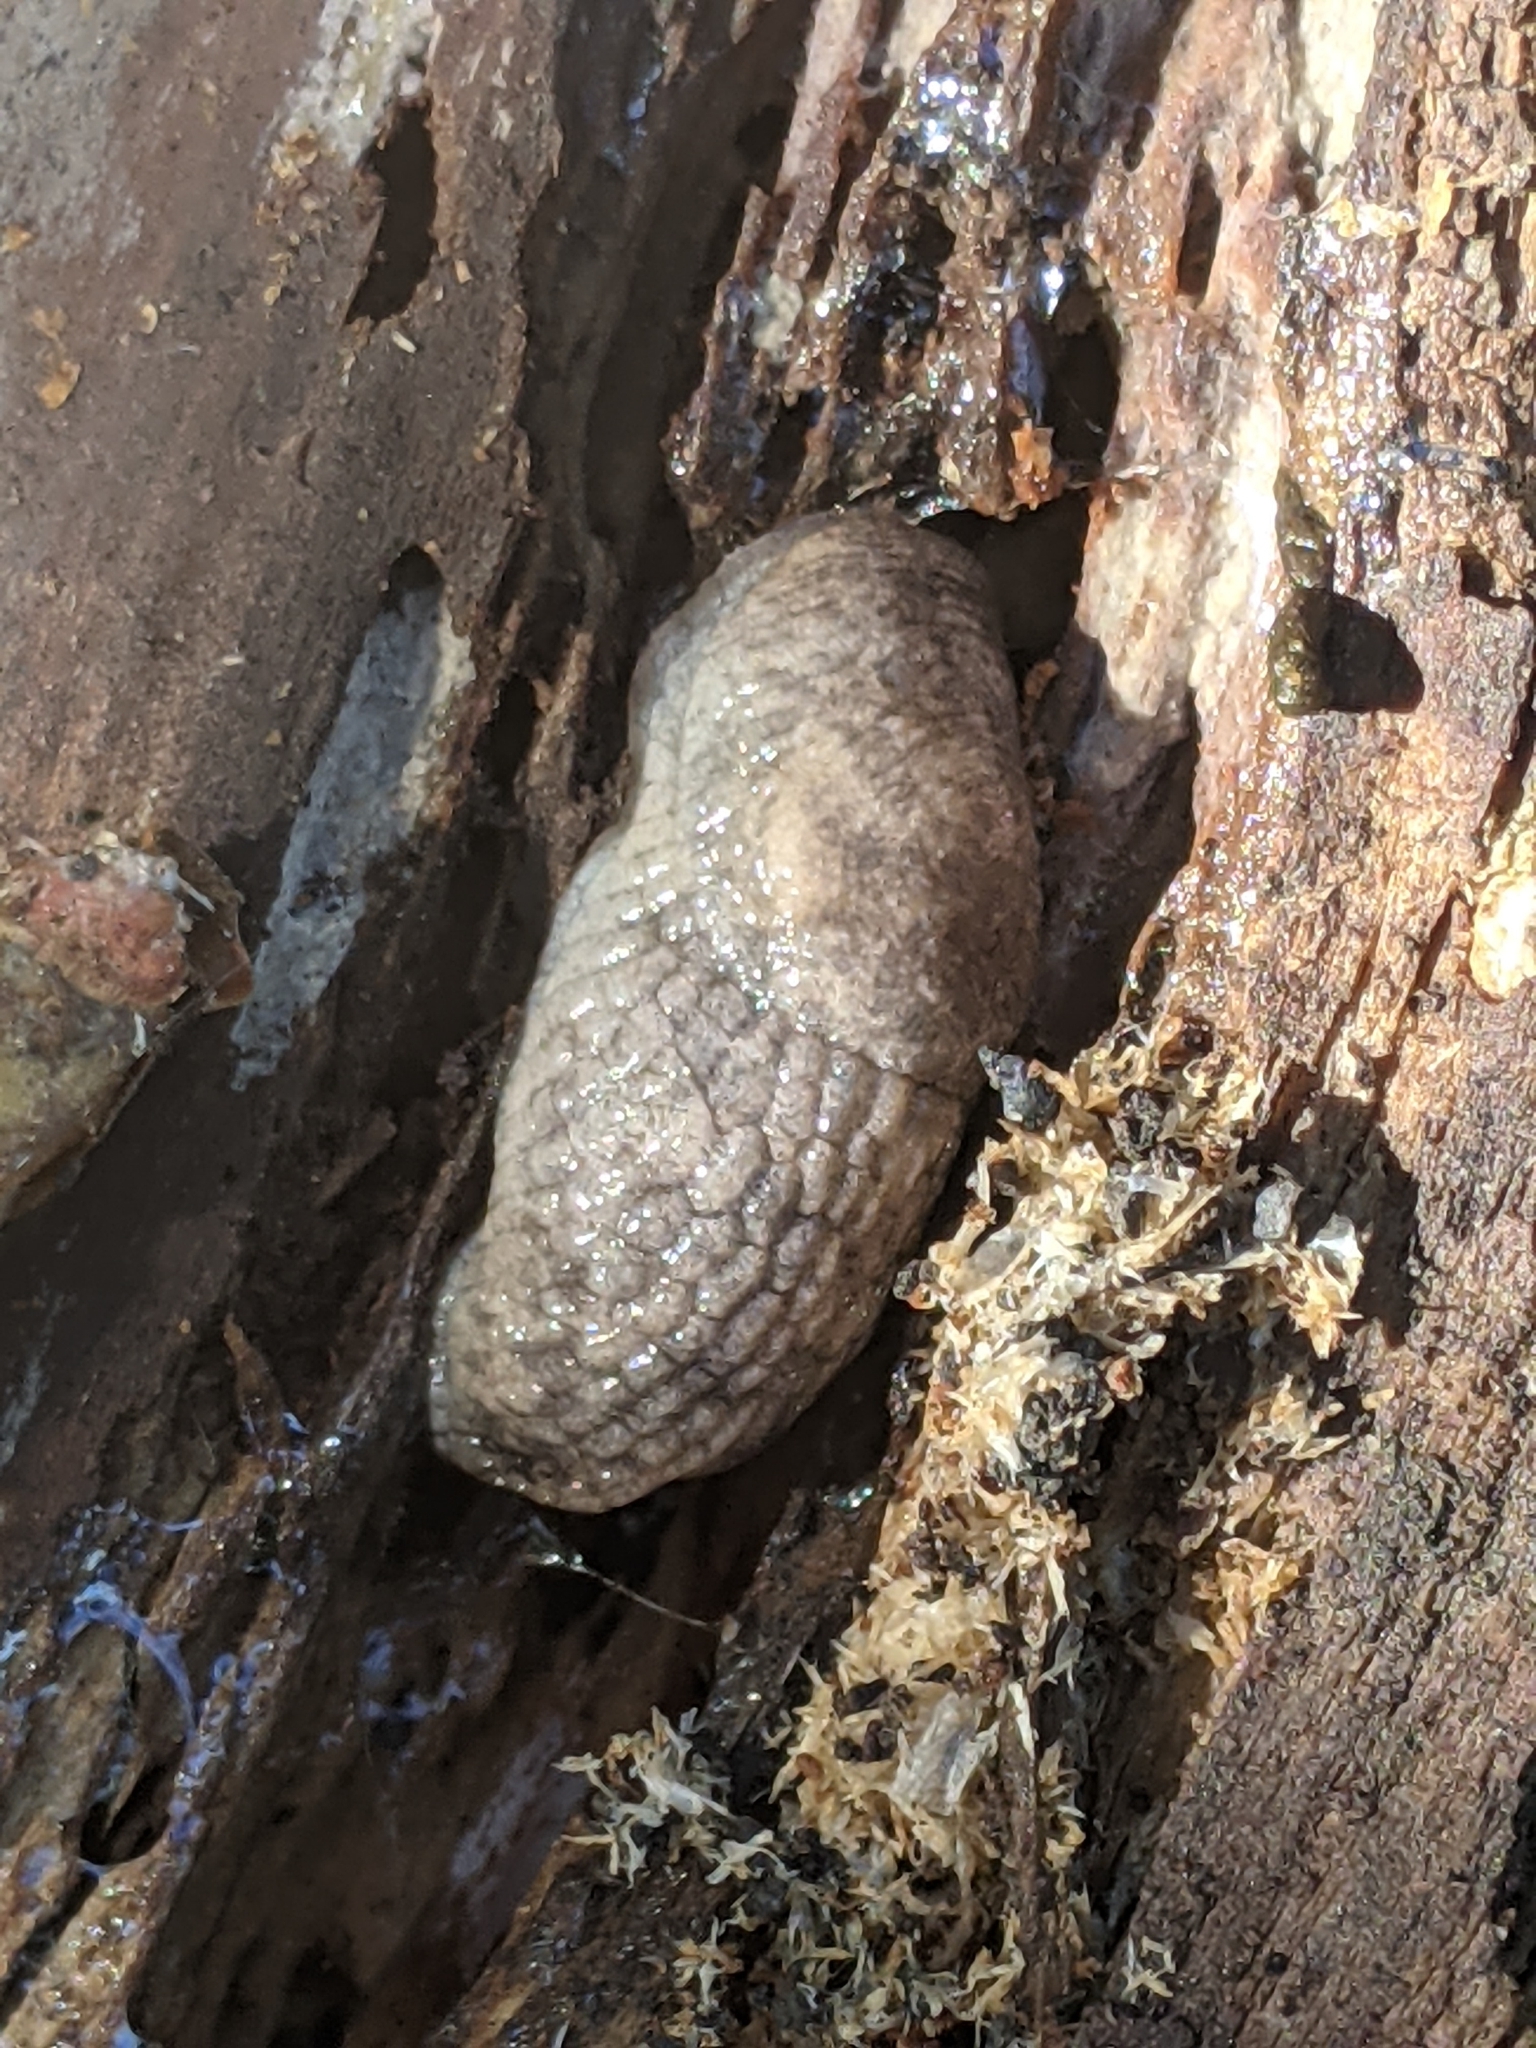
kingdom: Animalia
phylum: Mollusca
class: Gastropoda
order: Stylommatophora
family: Agriolimacidae
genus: Deroceras
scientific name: Deroceras reticulatum
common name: Gray field slug
